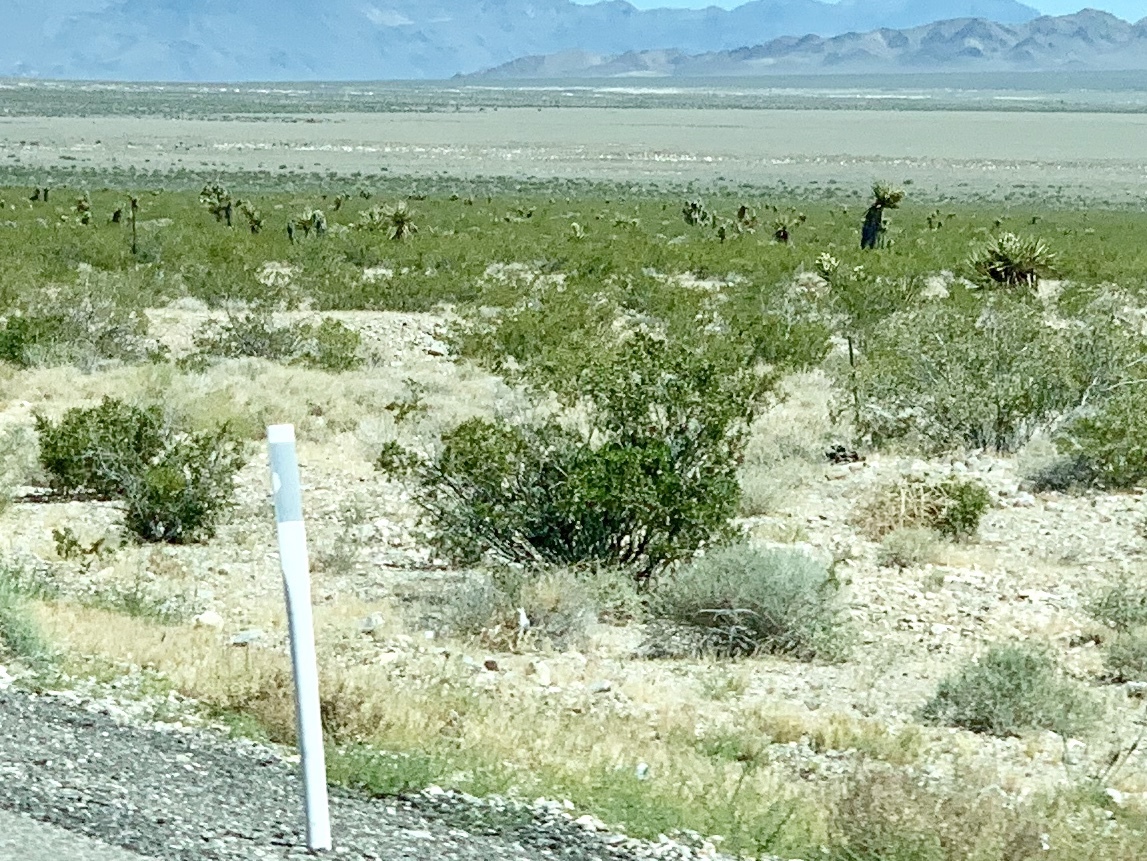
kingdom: Plantae
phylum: Tracheophyta
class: Magnoliopsida
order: Zygophyllales
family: Zygophyllaceae
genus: Larrea
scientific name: Larrea tridentata
